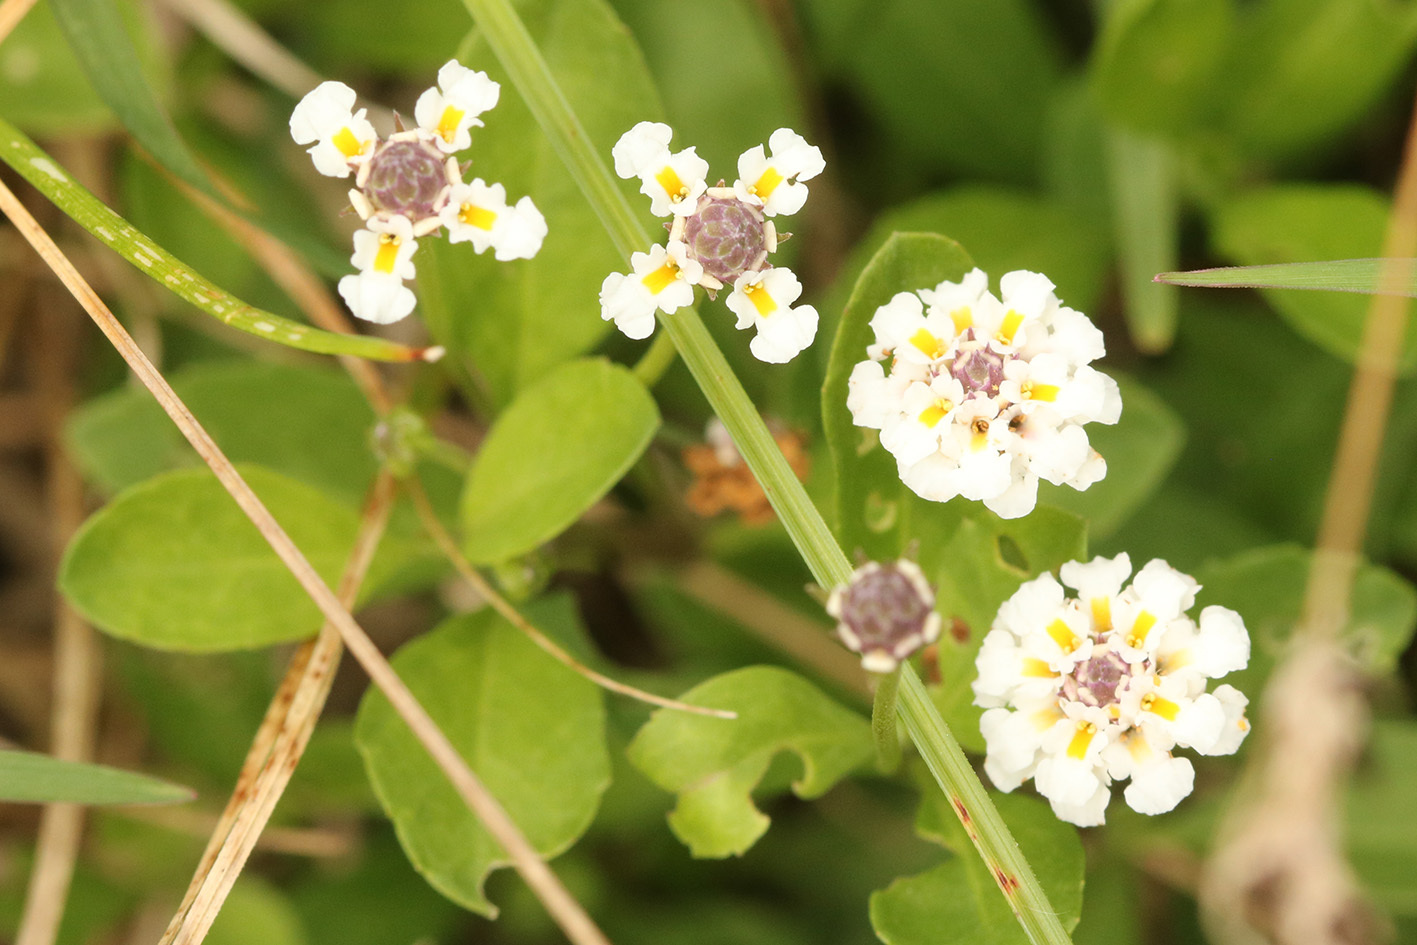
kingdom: Plantae
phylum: Tracheophyta
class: Magnoliopsida
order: Lamiales
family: Verbenaceae
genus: Phyla
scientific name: Phyla nodiflora
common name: Frogfruit
